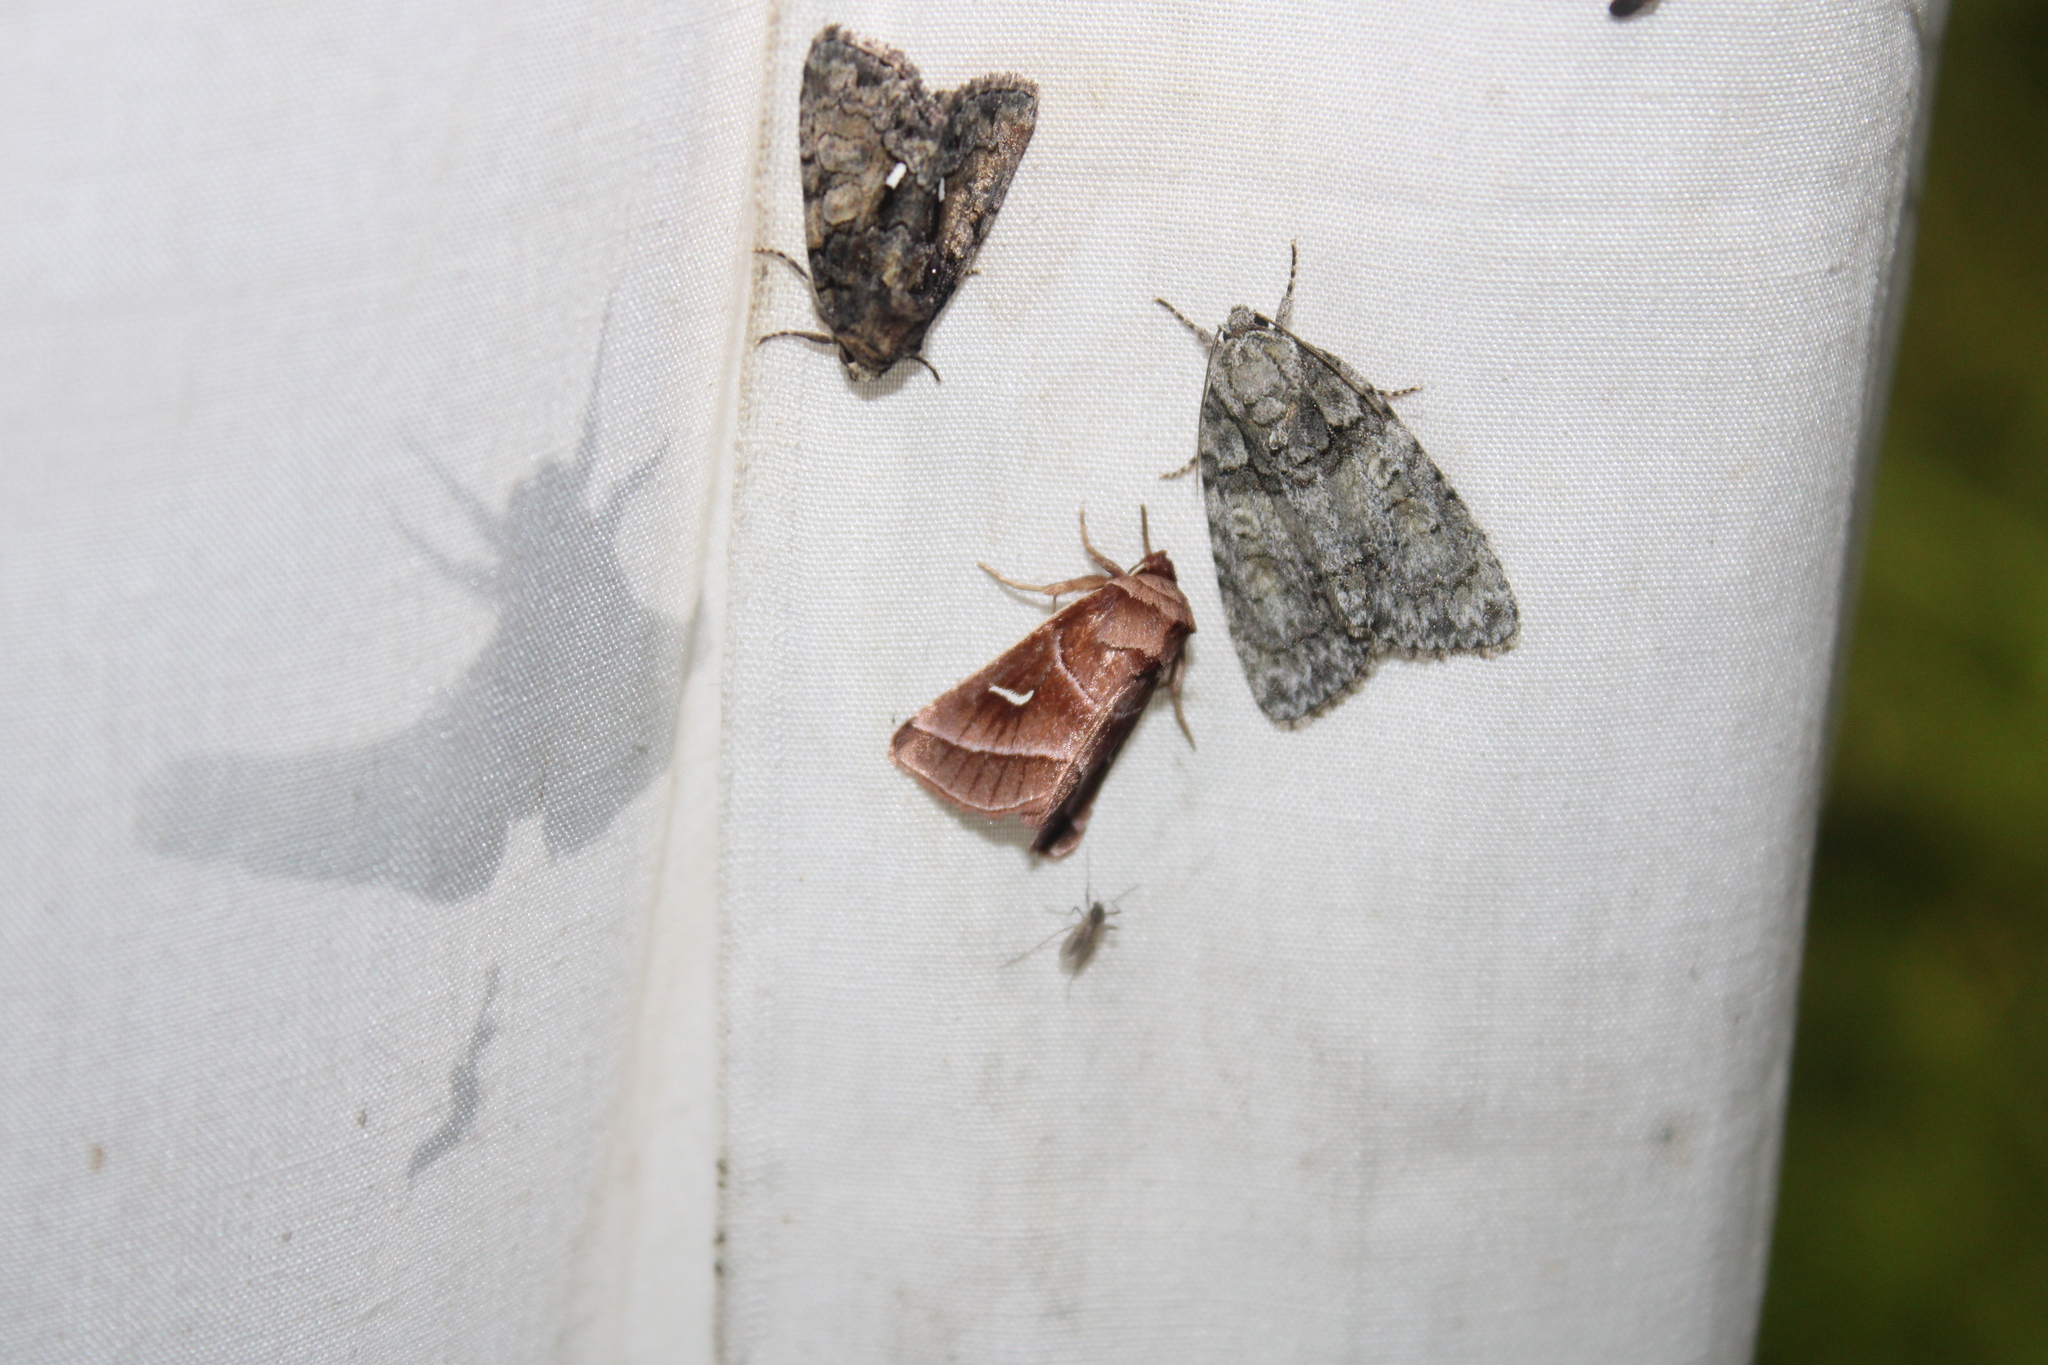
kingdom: Animalia
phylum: Arthropoda
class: Insecta
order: Lepidoptera
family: Noctuidae
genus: Chytonix
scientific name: Chytonix palliatricula
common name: Cloaked marvel
